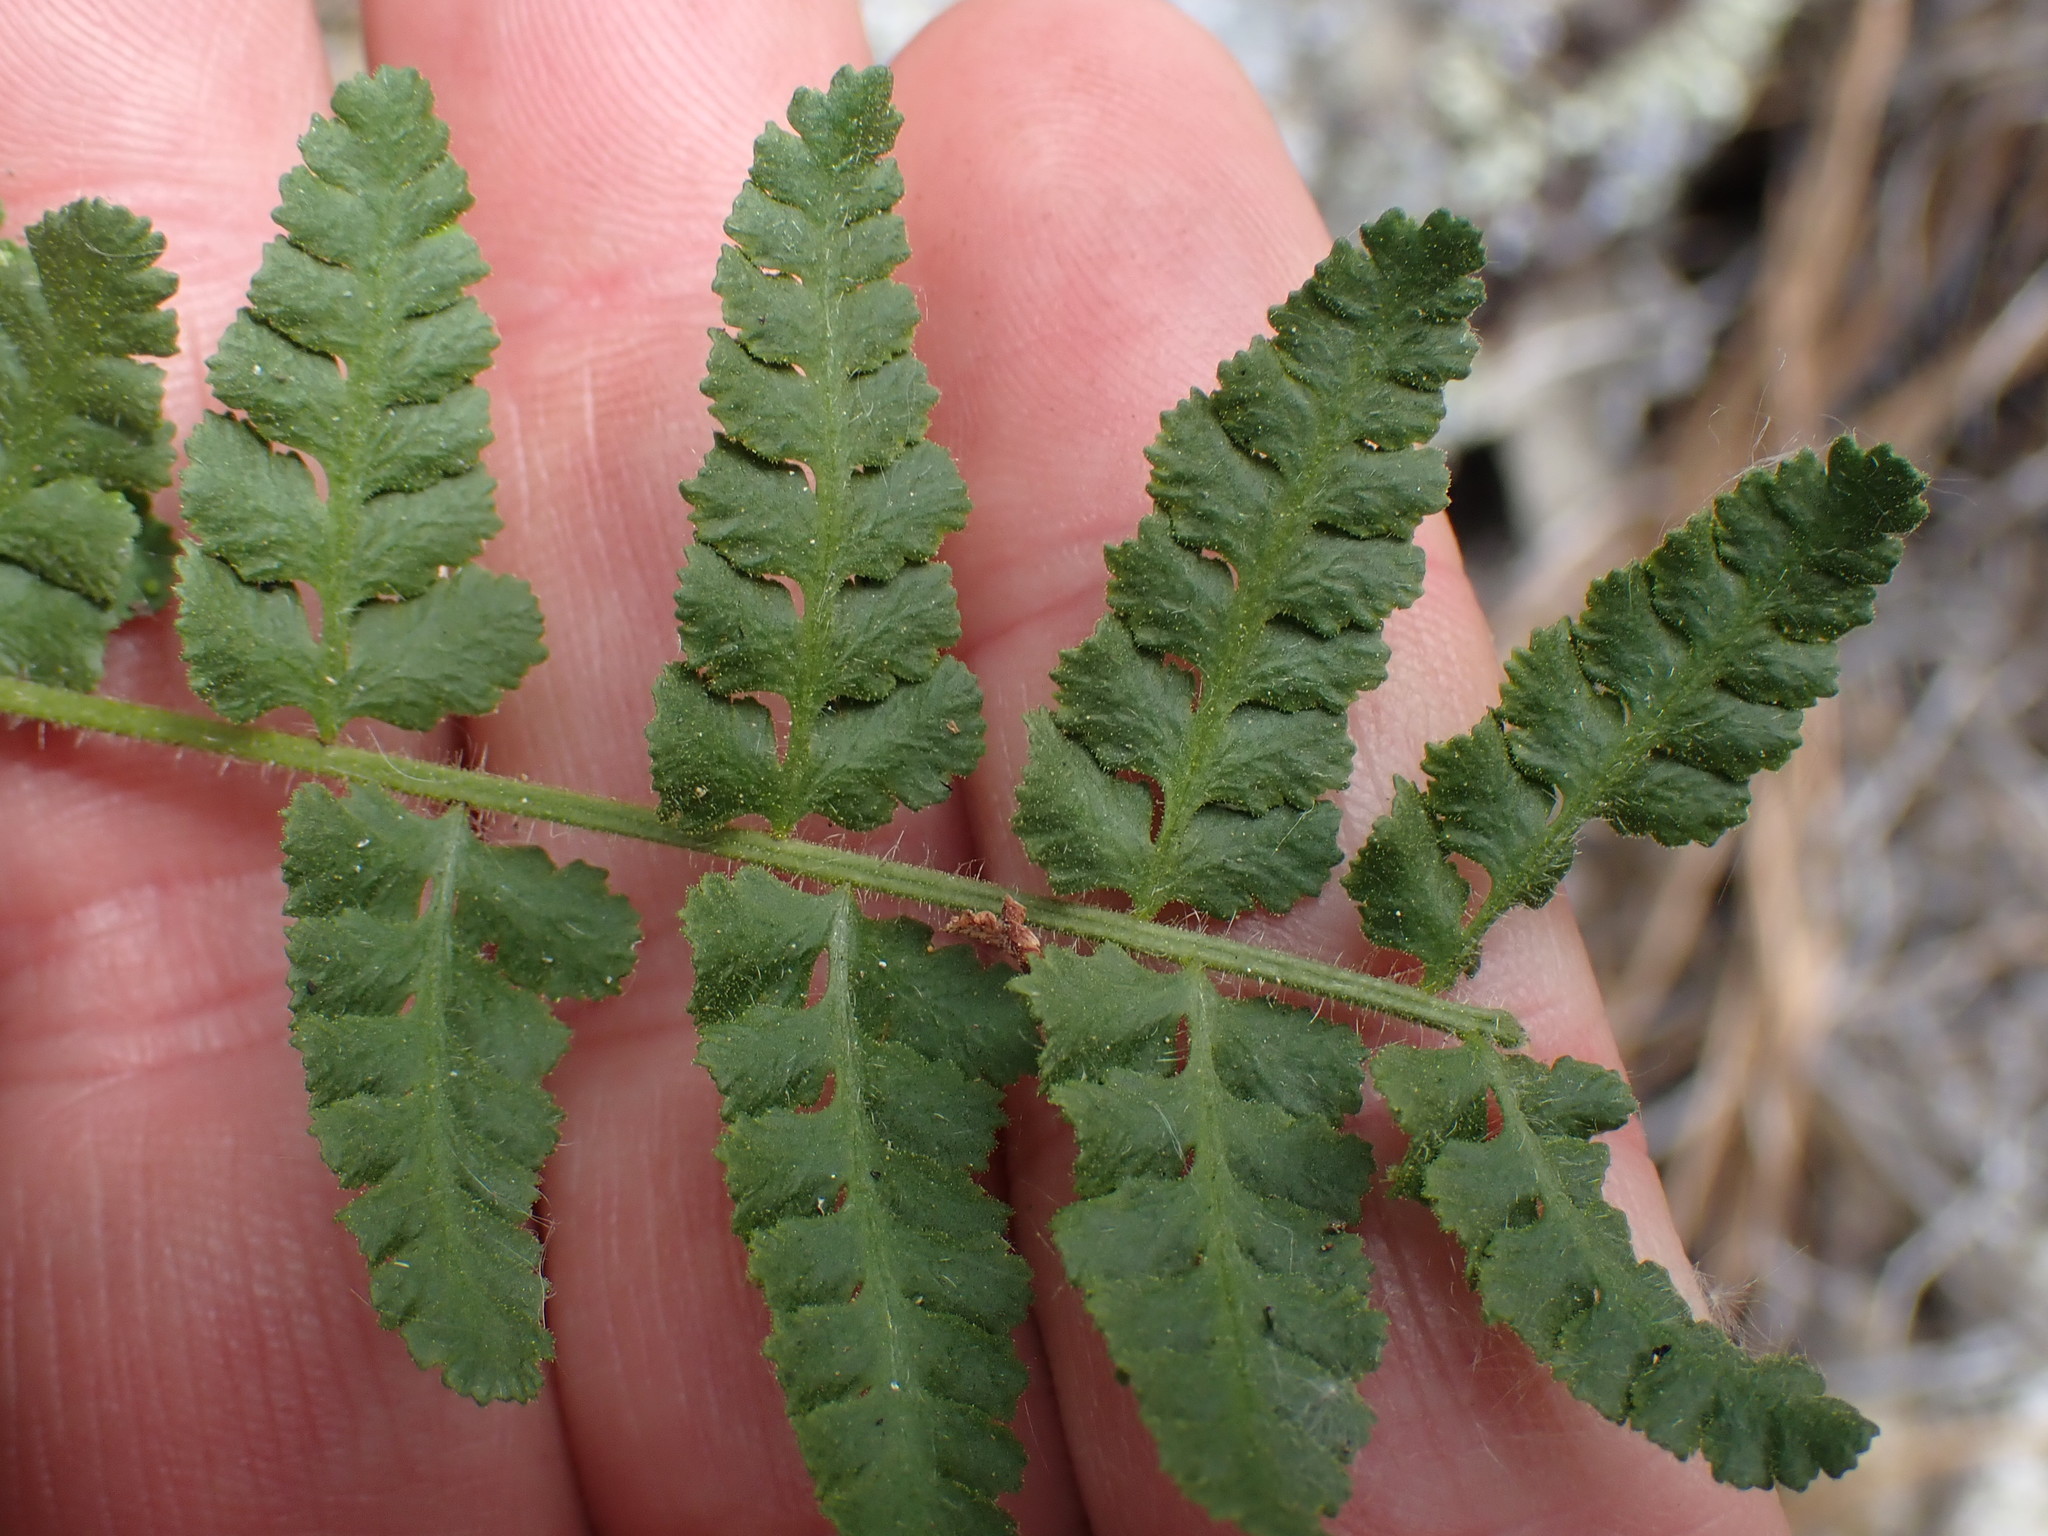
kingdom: Plantae
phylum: Tracheophyta
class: Polypodiopsida
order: Polypodiales
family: Woodsiaceae
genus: Physematium
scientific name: Physematium scopulinum
